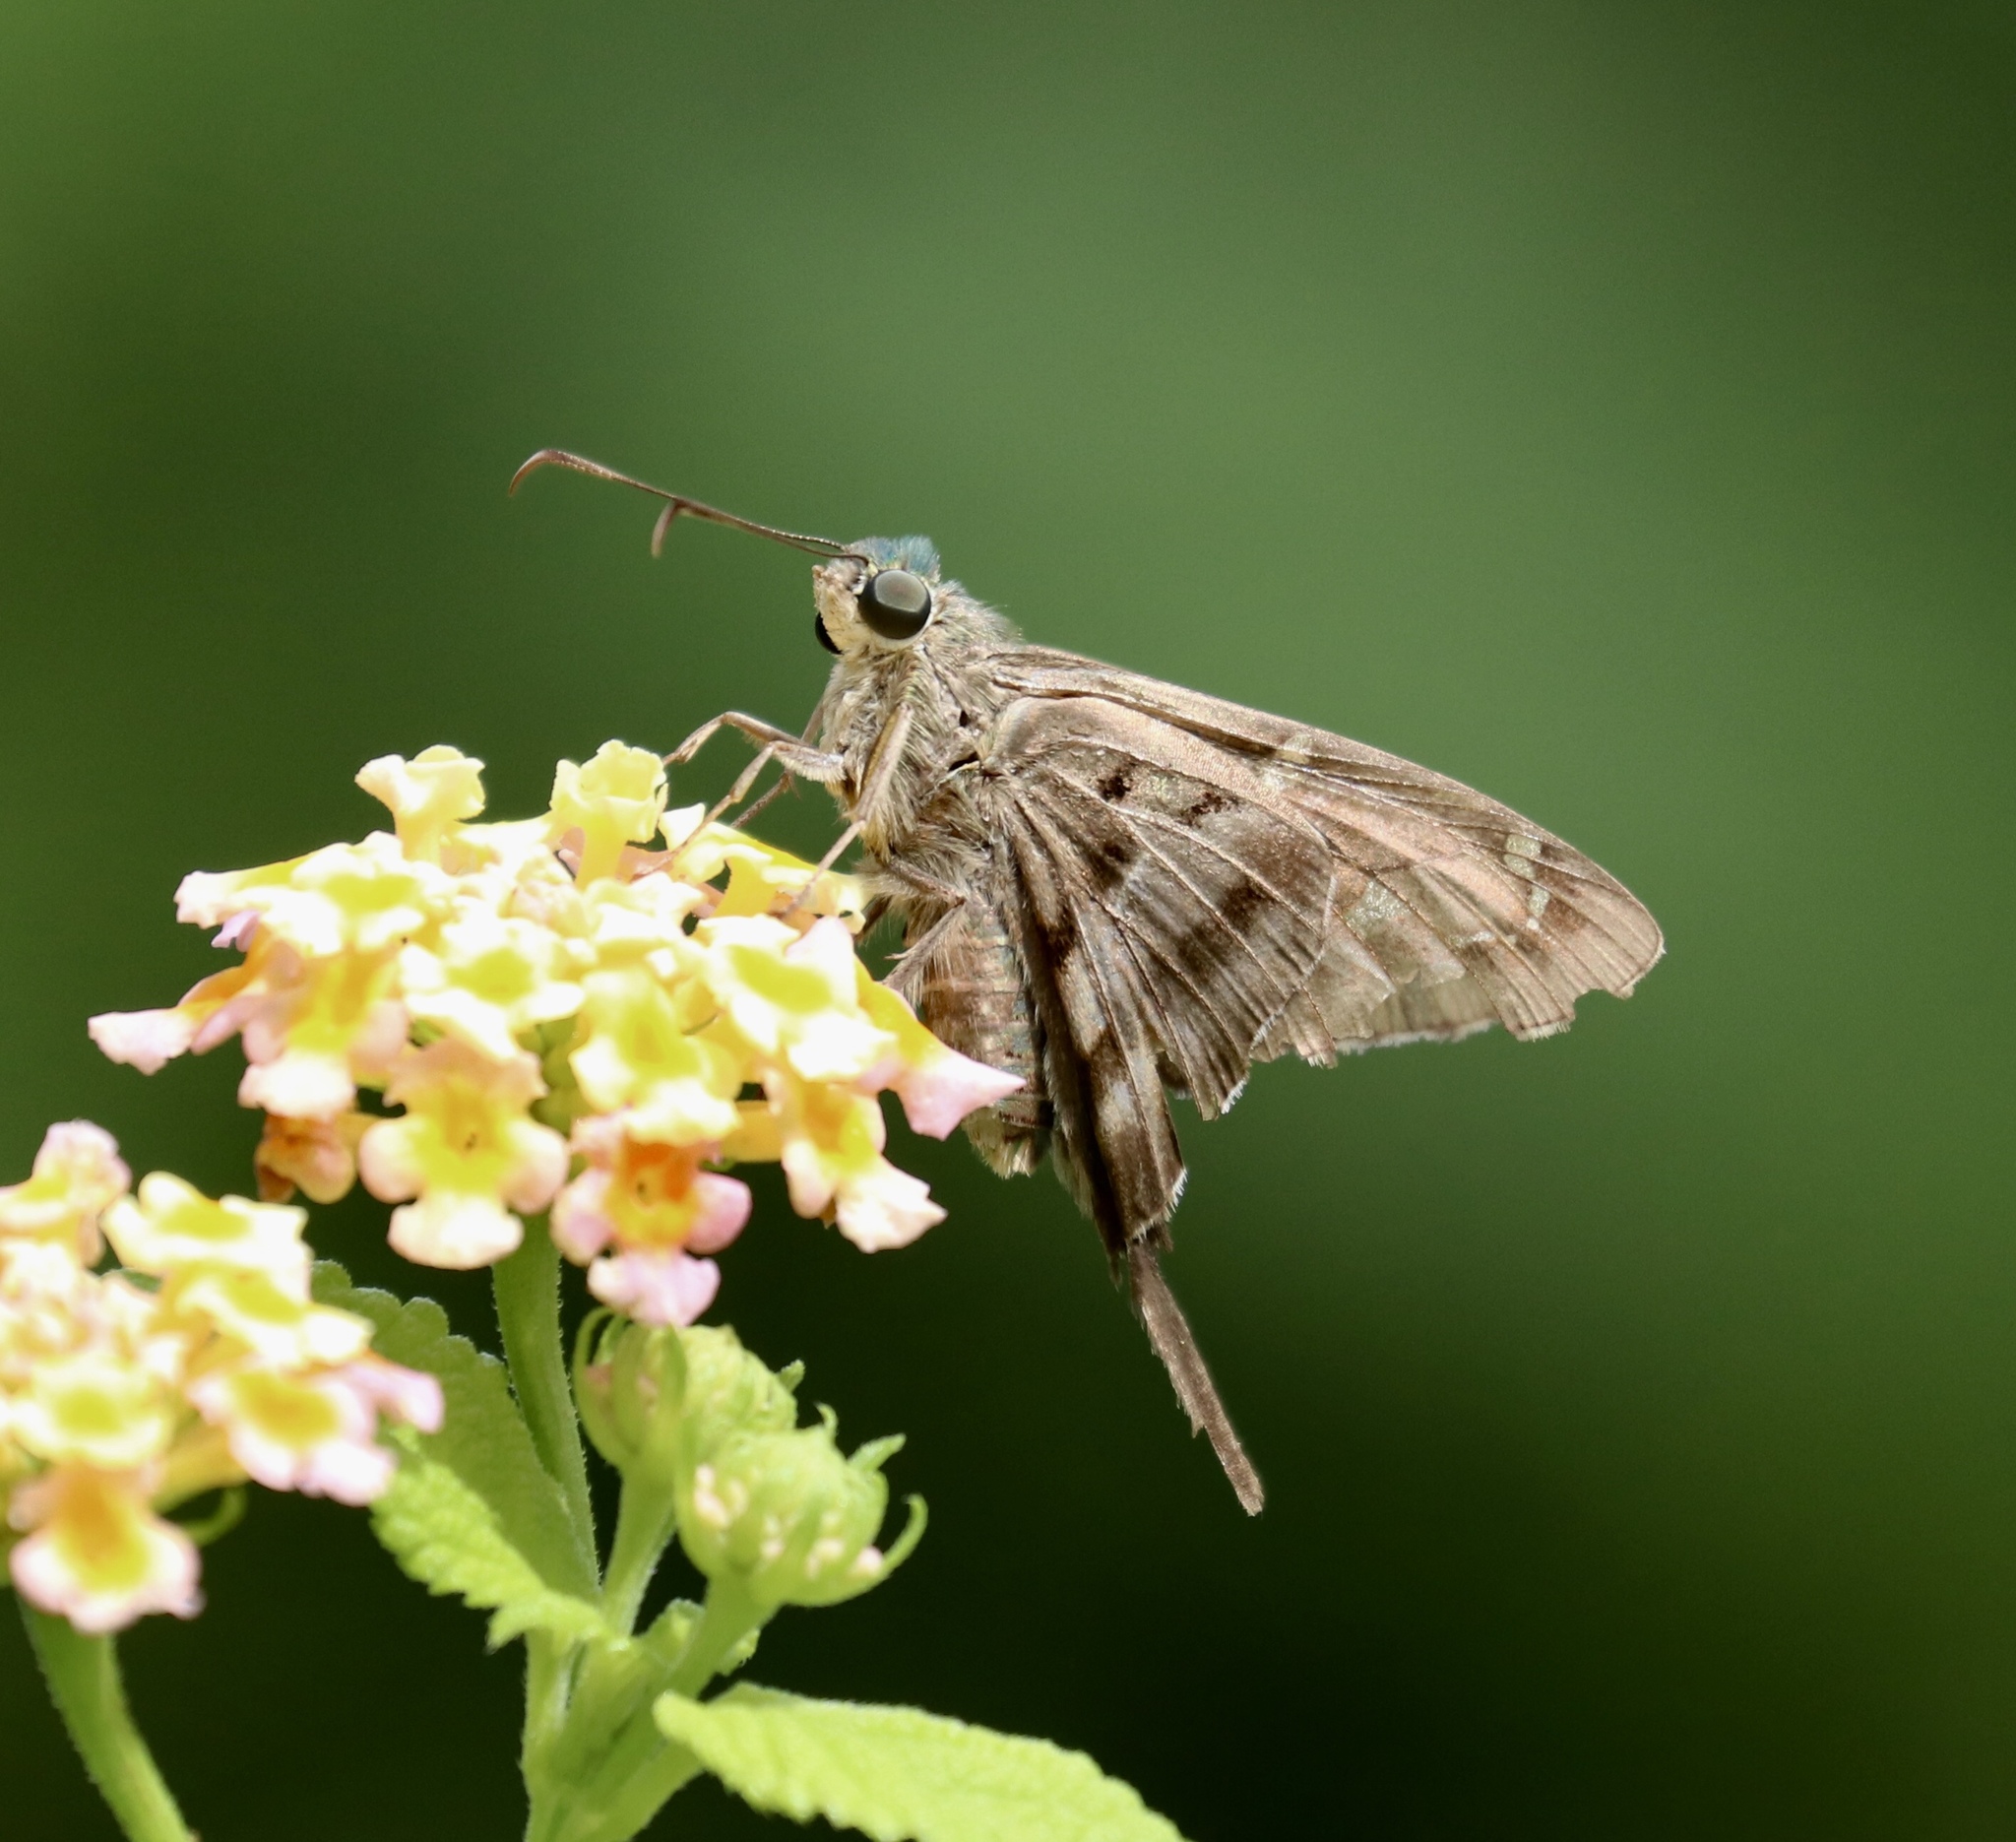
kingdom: Animalia
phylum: Arthropoda
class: Insecta
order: Lepidoptera
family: Hesperiidae
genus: Urbanus
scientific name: Urbanus proteus
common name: Long-tailed skipper
